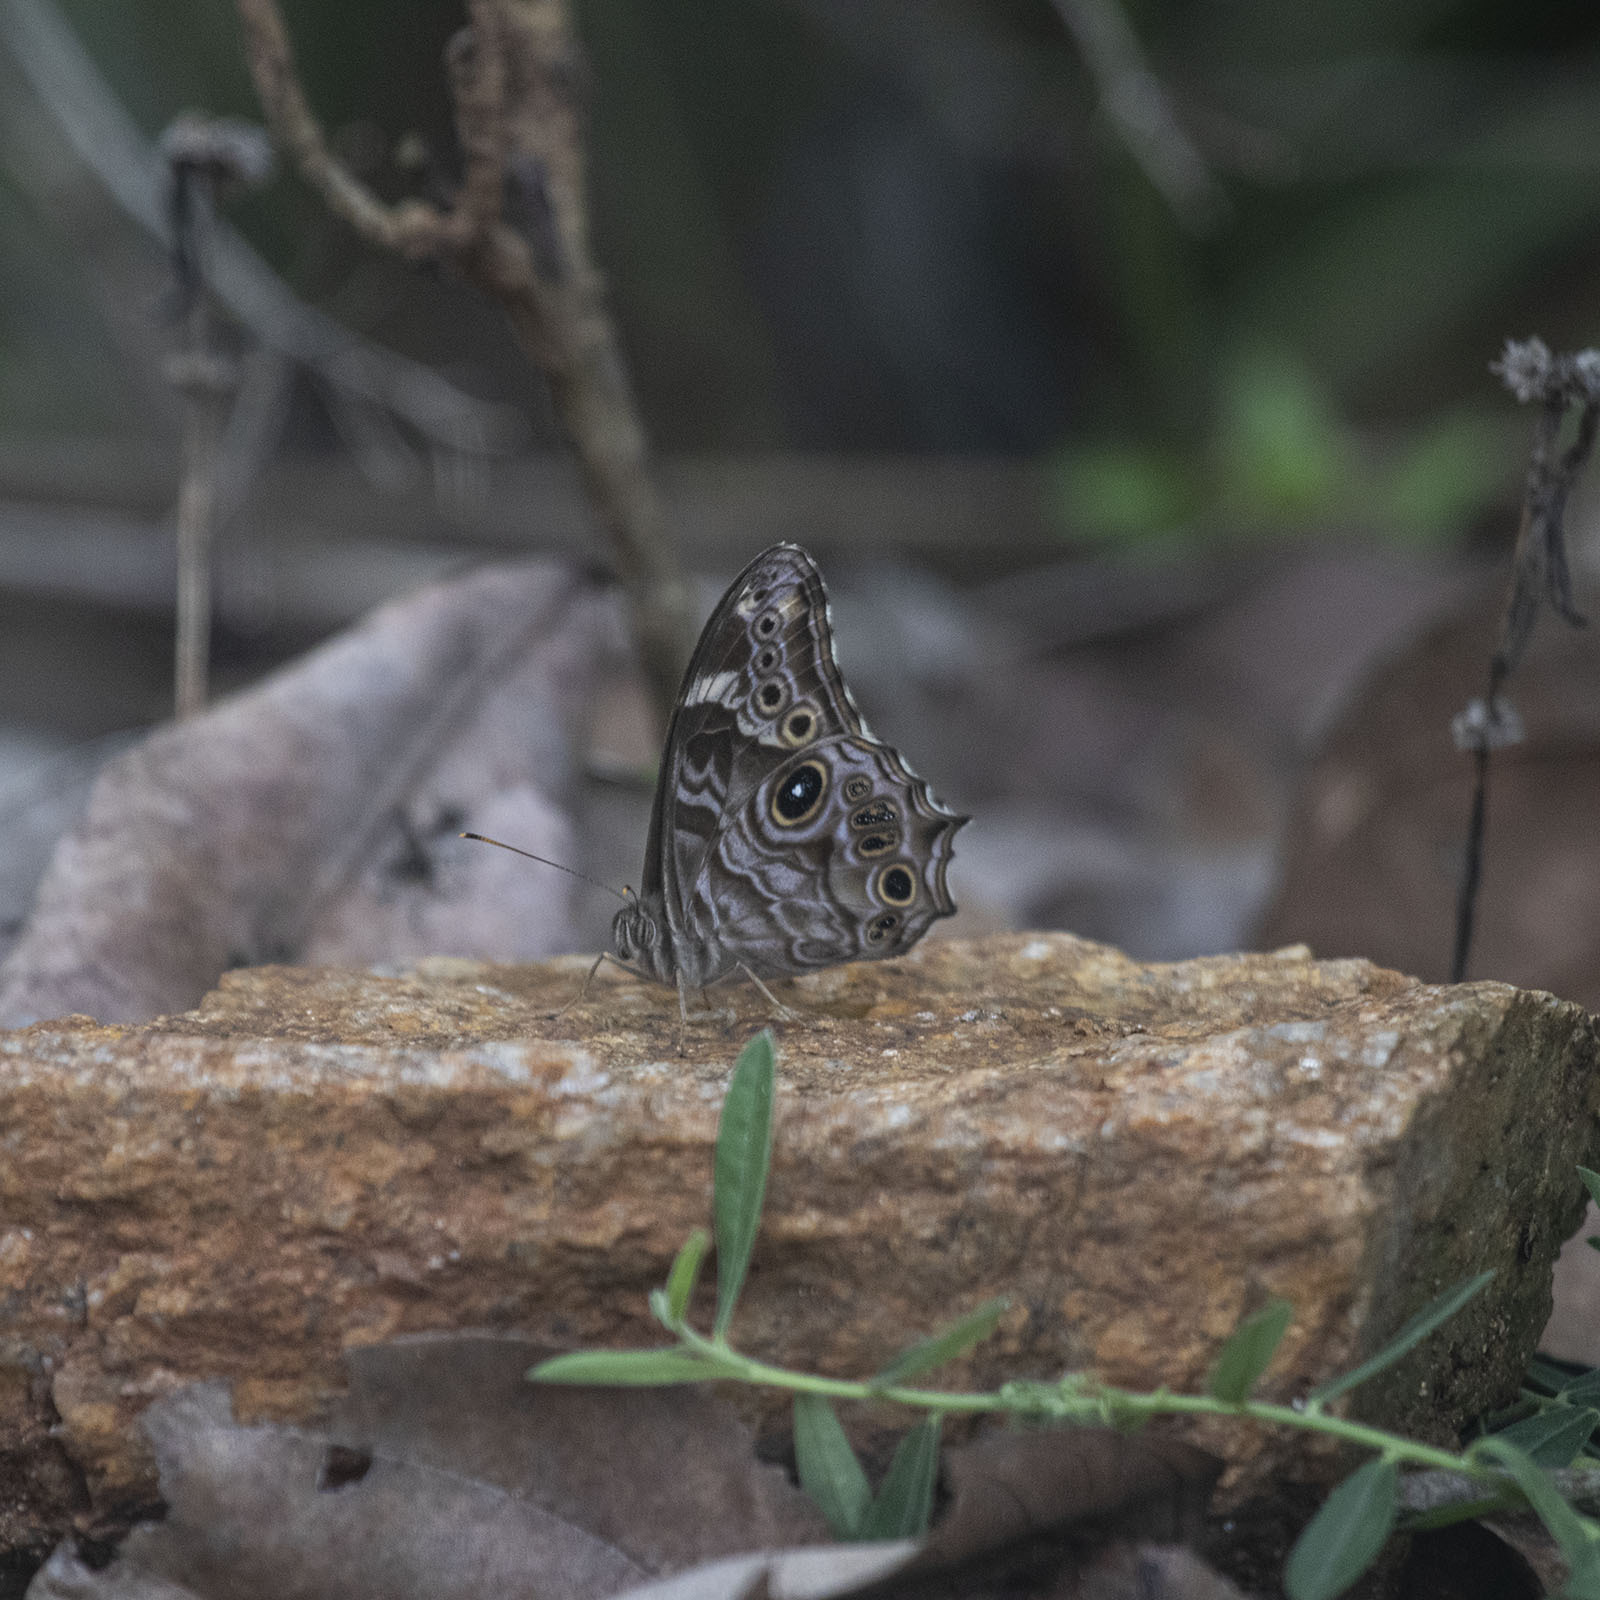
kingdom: Animalia
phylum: Arthropoda
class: Insecta
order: Lepidoptera
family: Nymphalidae
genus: Lethe
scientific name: Lethe rohria
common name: Common treebrown
